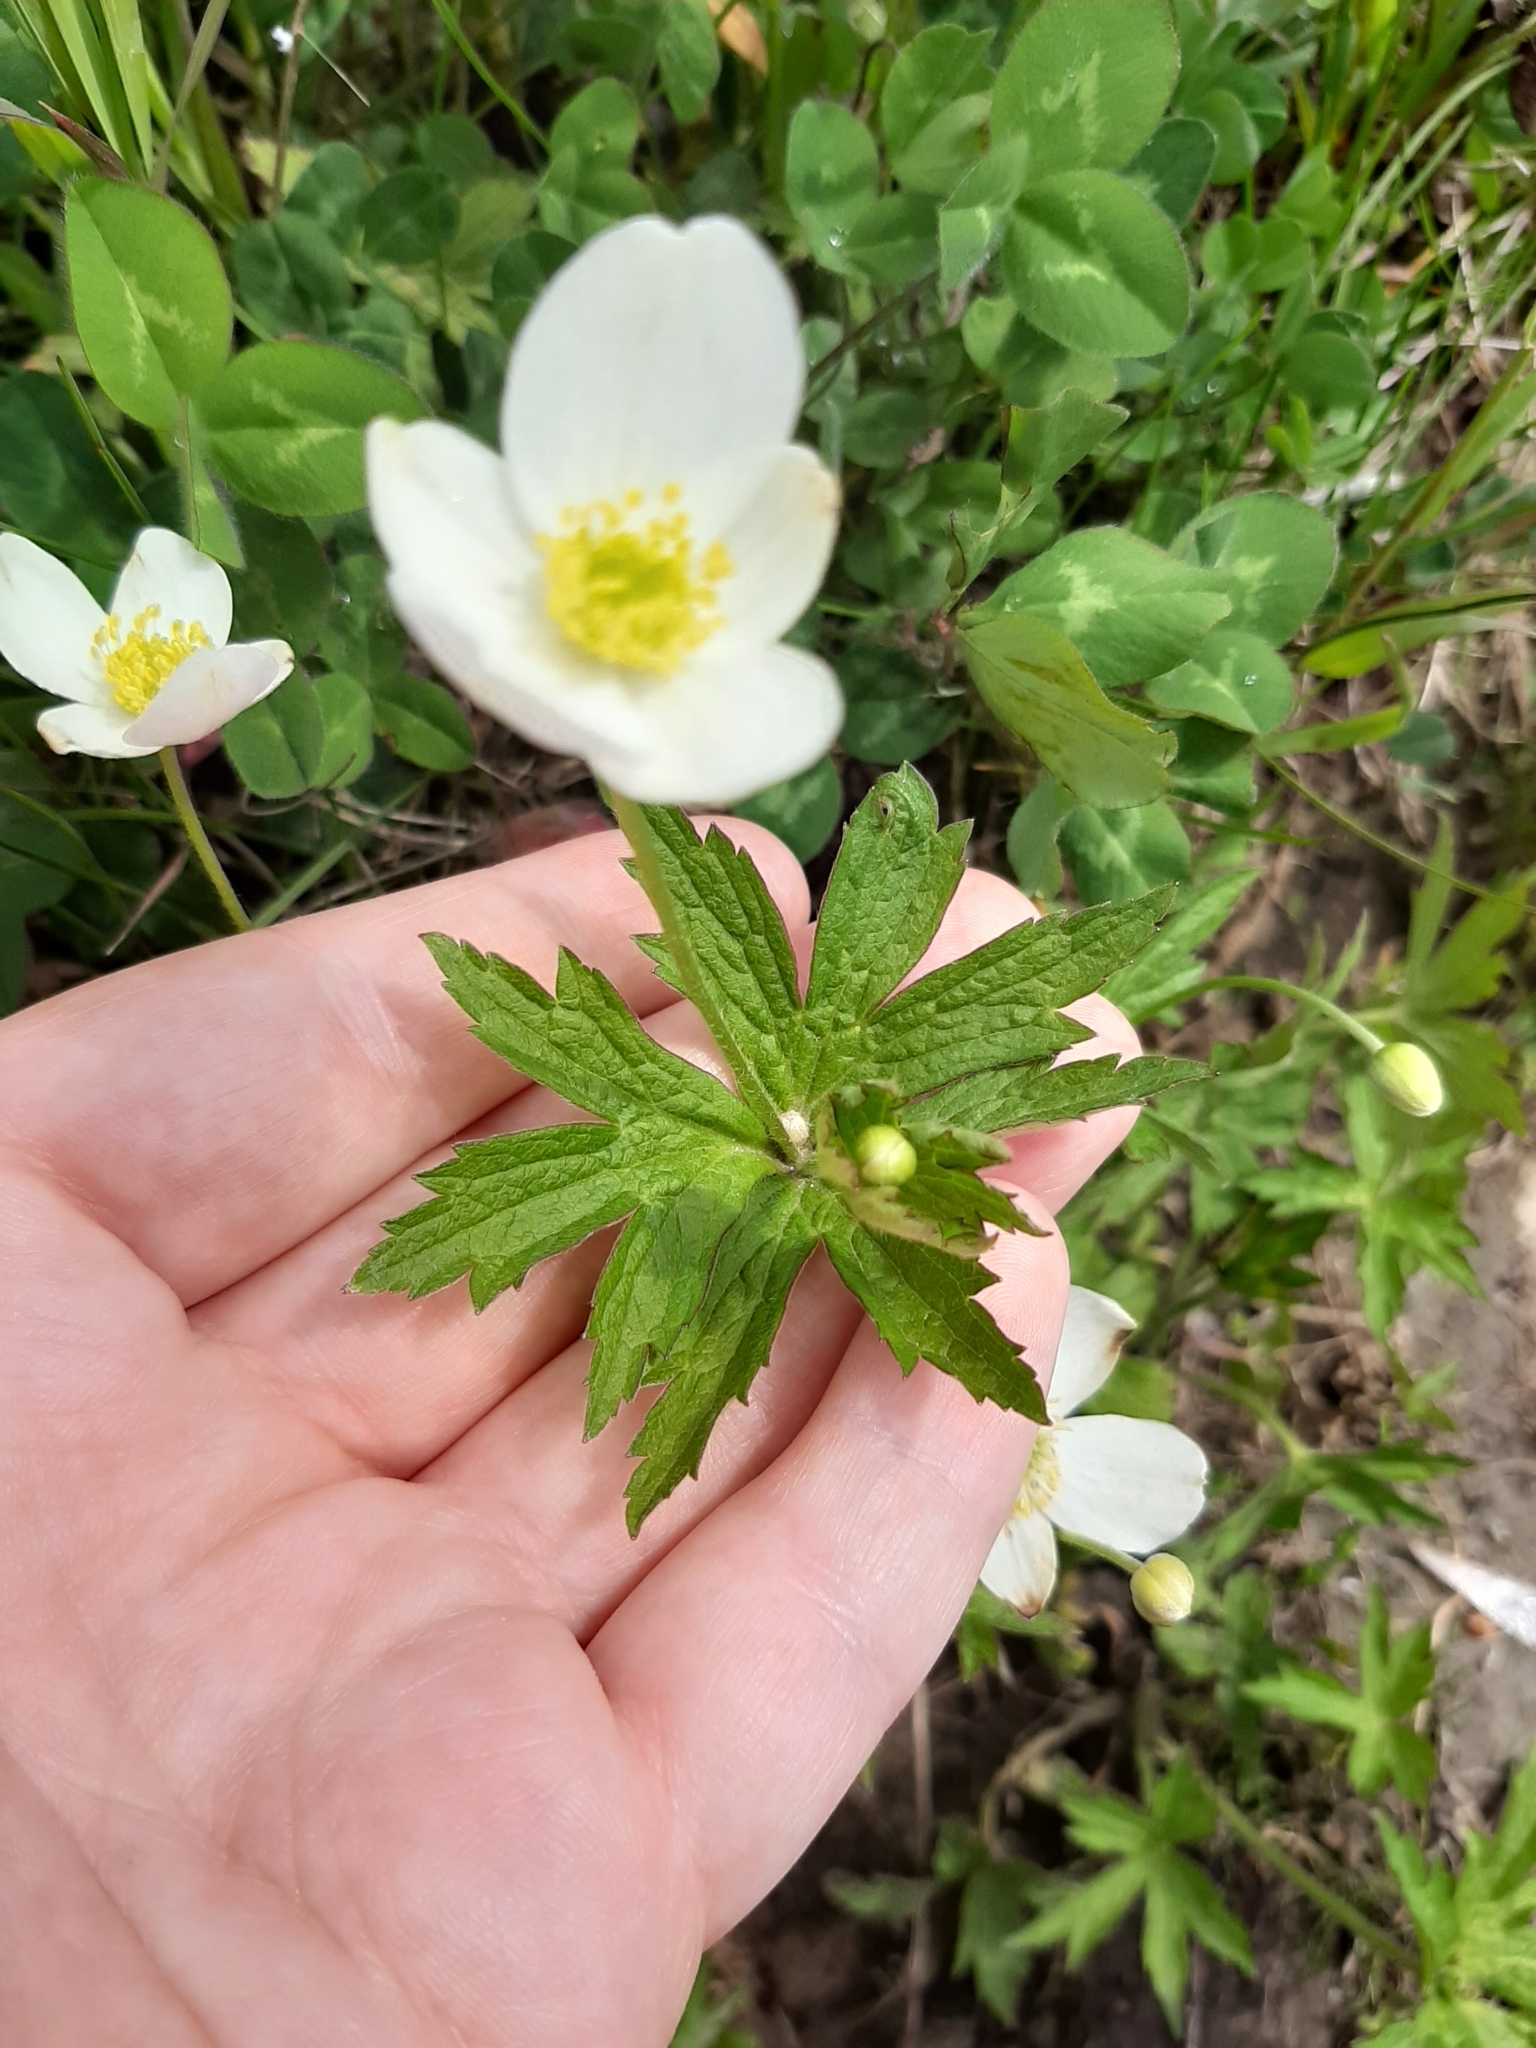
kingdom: Plantae
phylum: Tracheophyta
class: Magnoliopsida
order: Ranunculales
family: Ranunculaceae
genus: Anemonastrum
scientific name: Anemonastrum canadense
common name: Canada anemone
